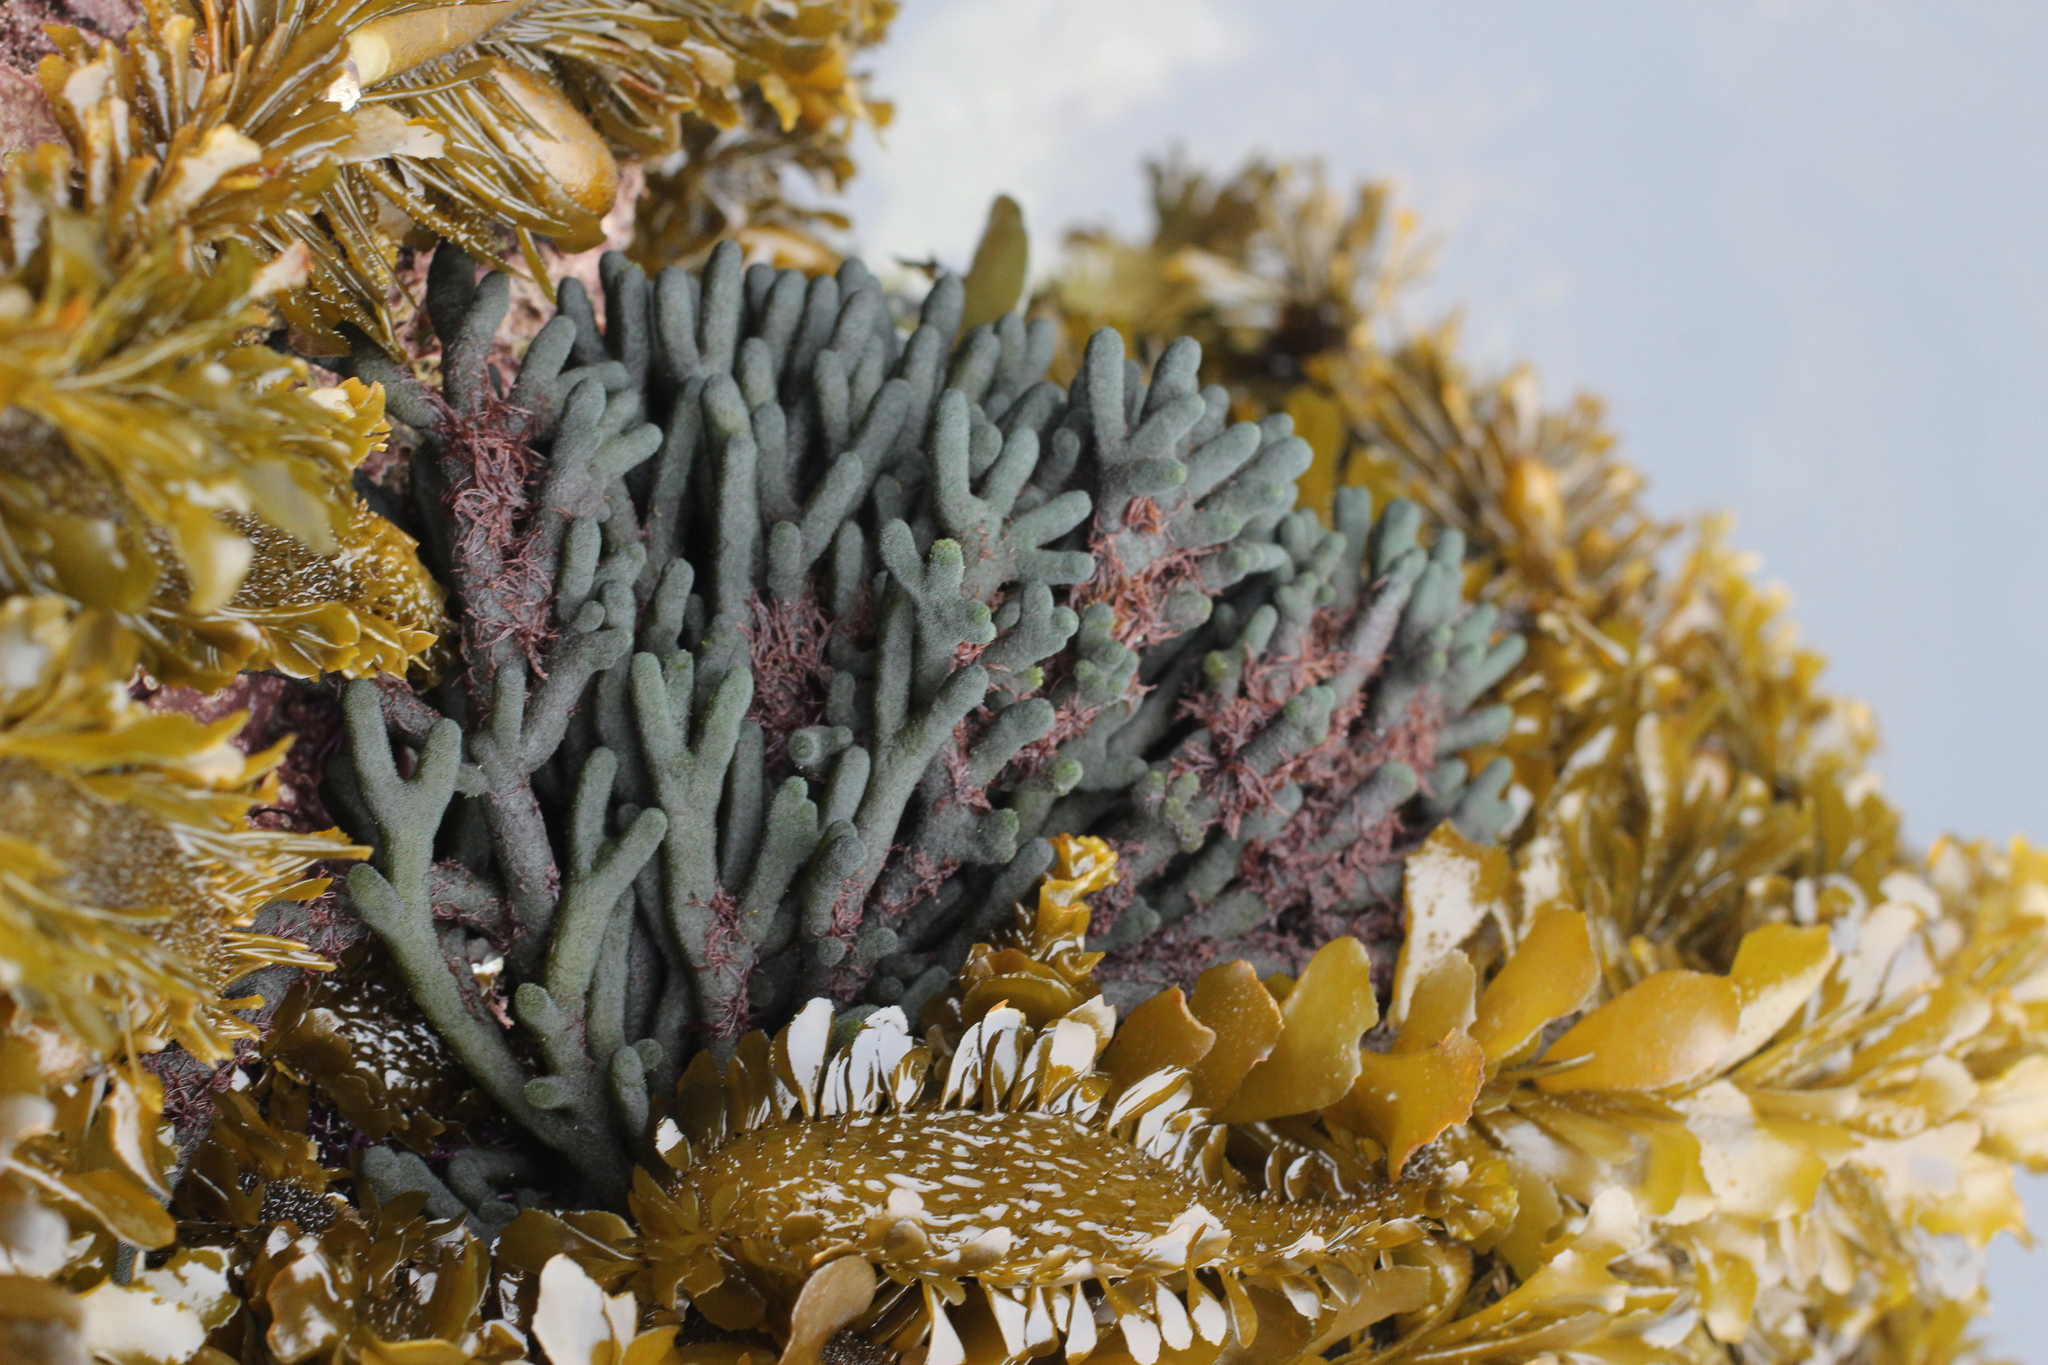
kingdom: Plantae
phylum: Chlorophyta
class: Ulvophyceae
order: Bryopsidales
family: Codiaceae
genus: Codium
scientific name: Codium fragile
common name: Dead man's fingers
